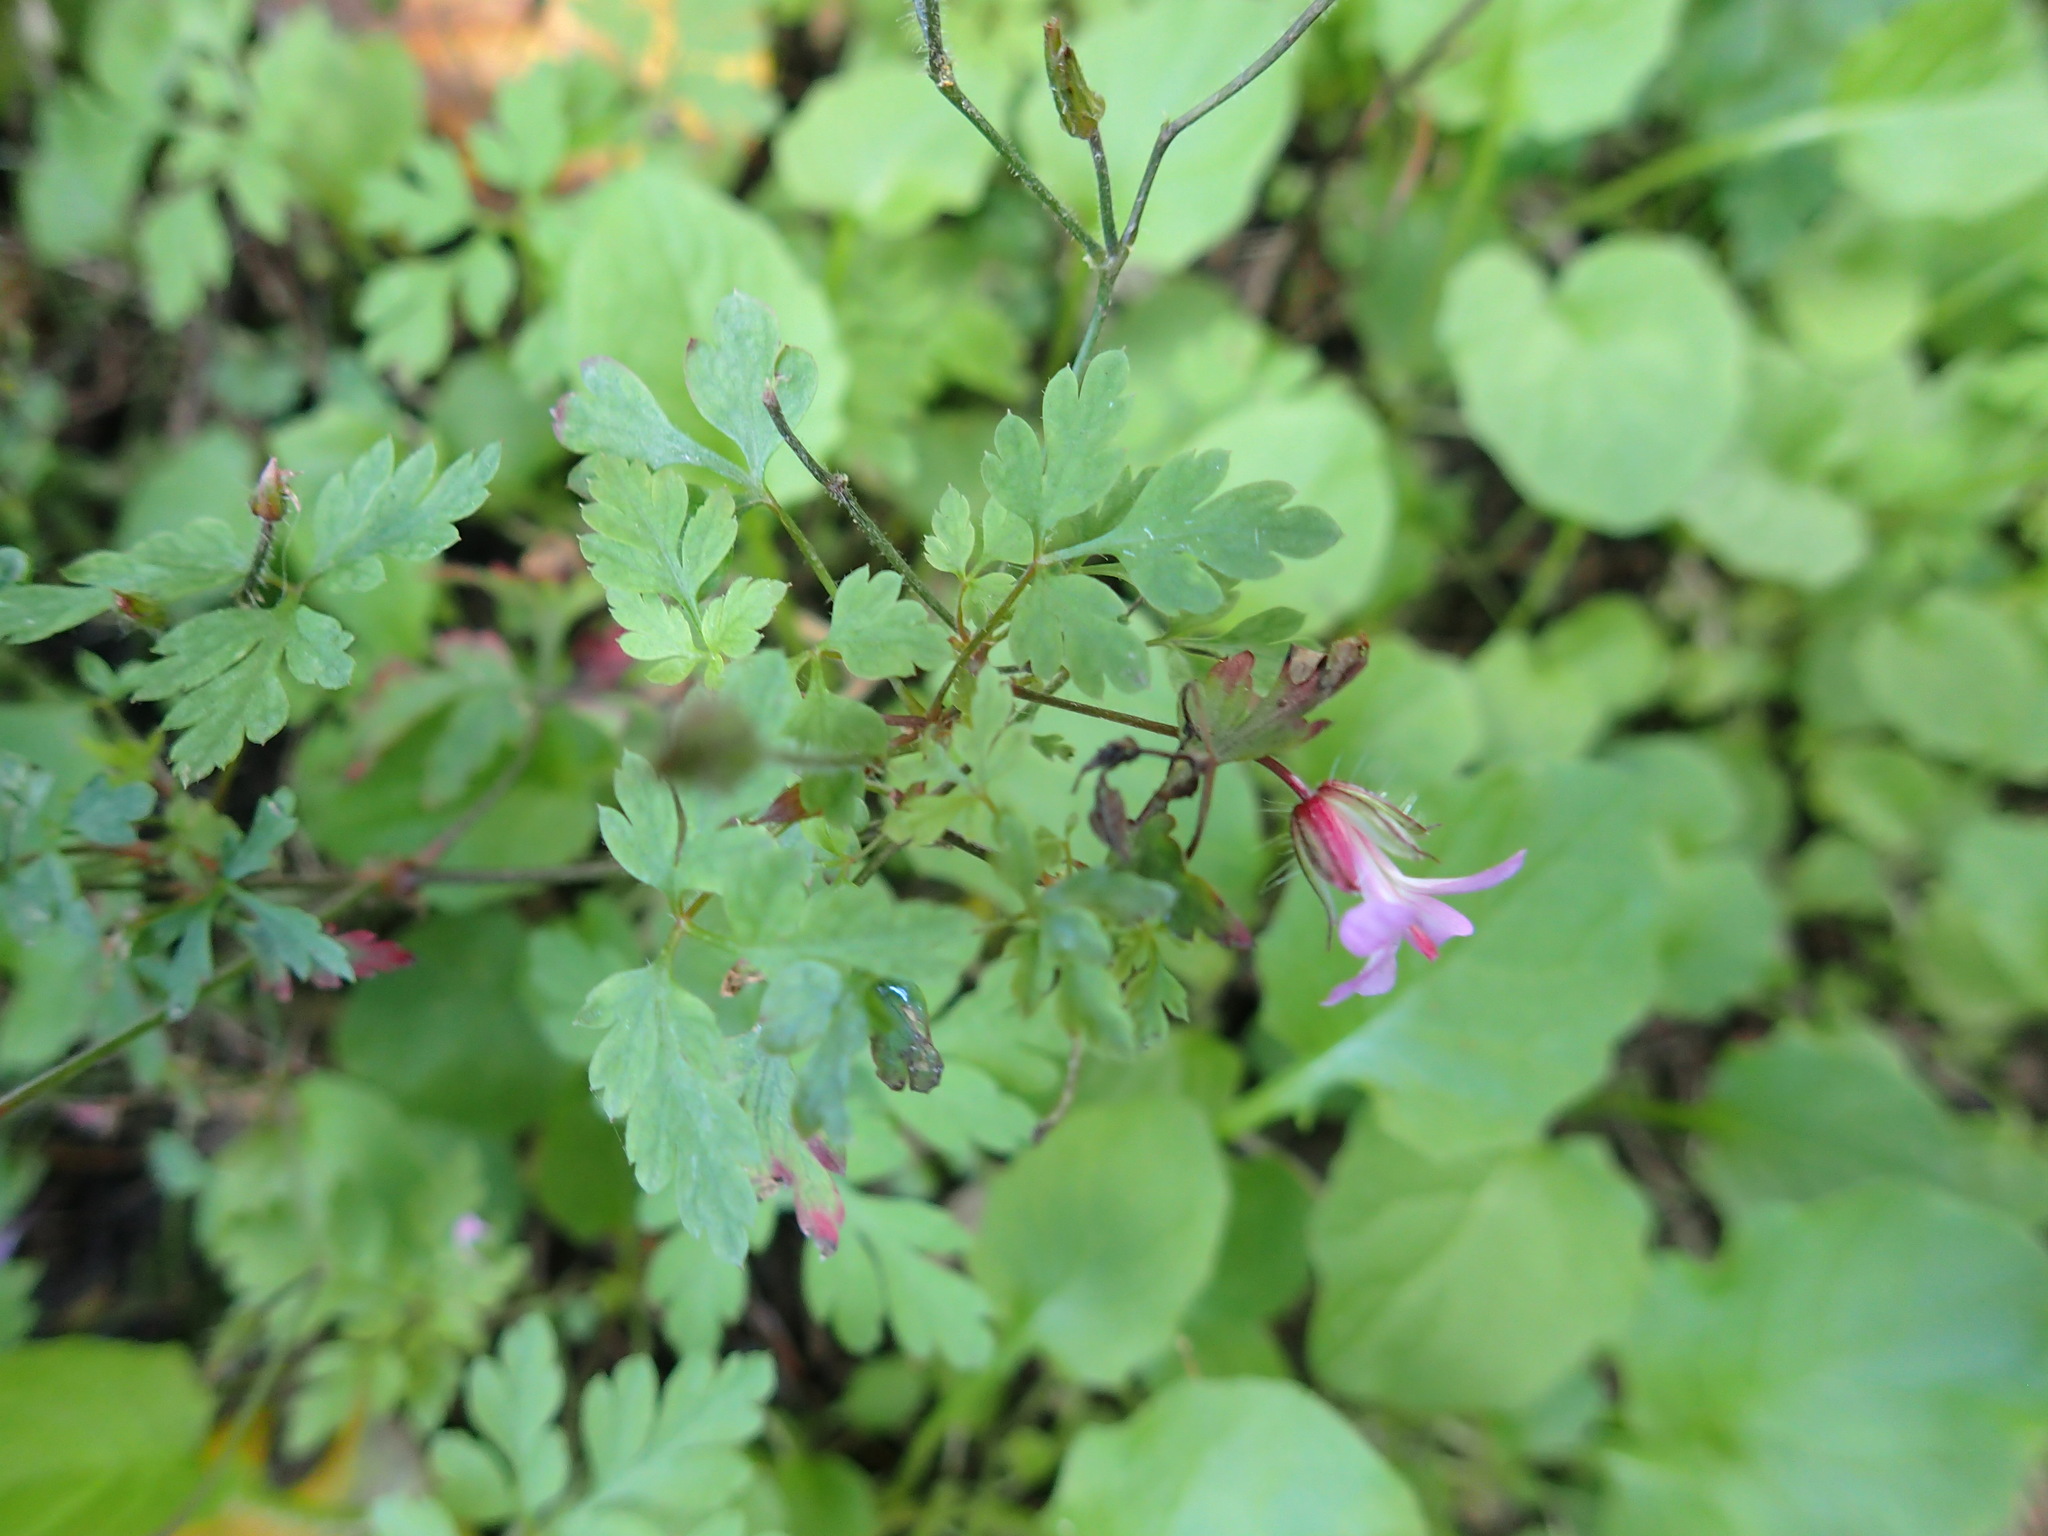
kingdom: Plantae
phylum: Tracheophyta
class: Magnoliopsida
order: Geraniales
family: Geraniaceae
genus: Geranium
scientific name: Geranium robertianum
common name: Herb-robert
